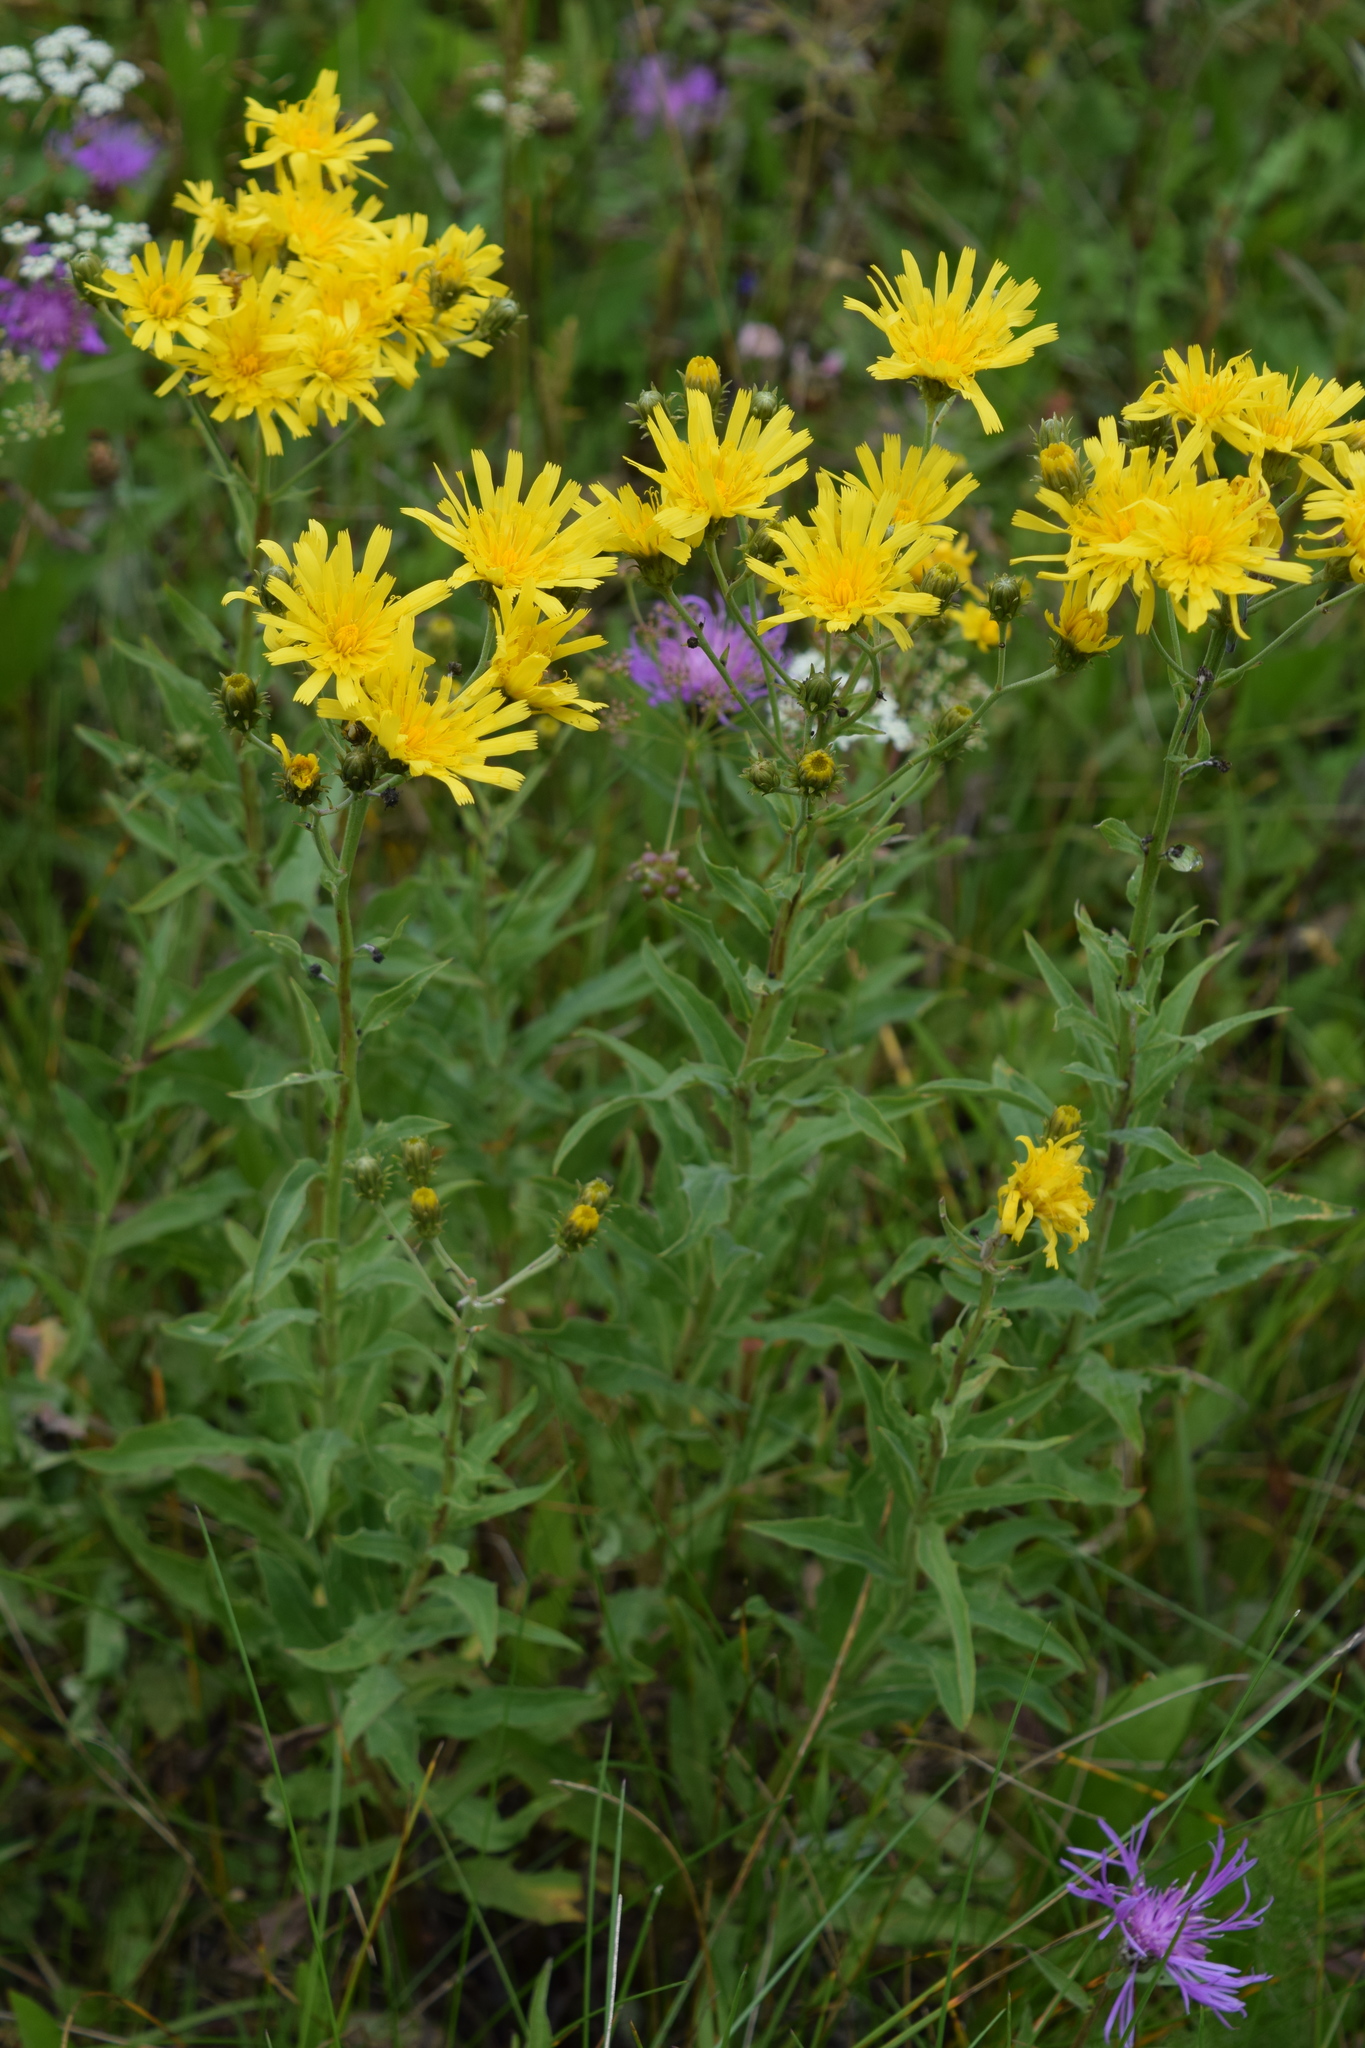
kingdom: Plantae
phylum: Tracheophyta
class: Magnoliopsida
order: Asterales
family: Asteraceae
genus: Hieracium
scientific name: Hieracium umbellatum
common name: Northern hawkweed
